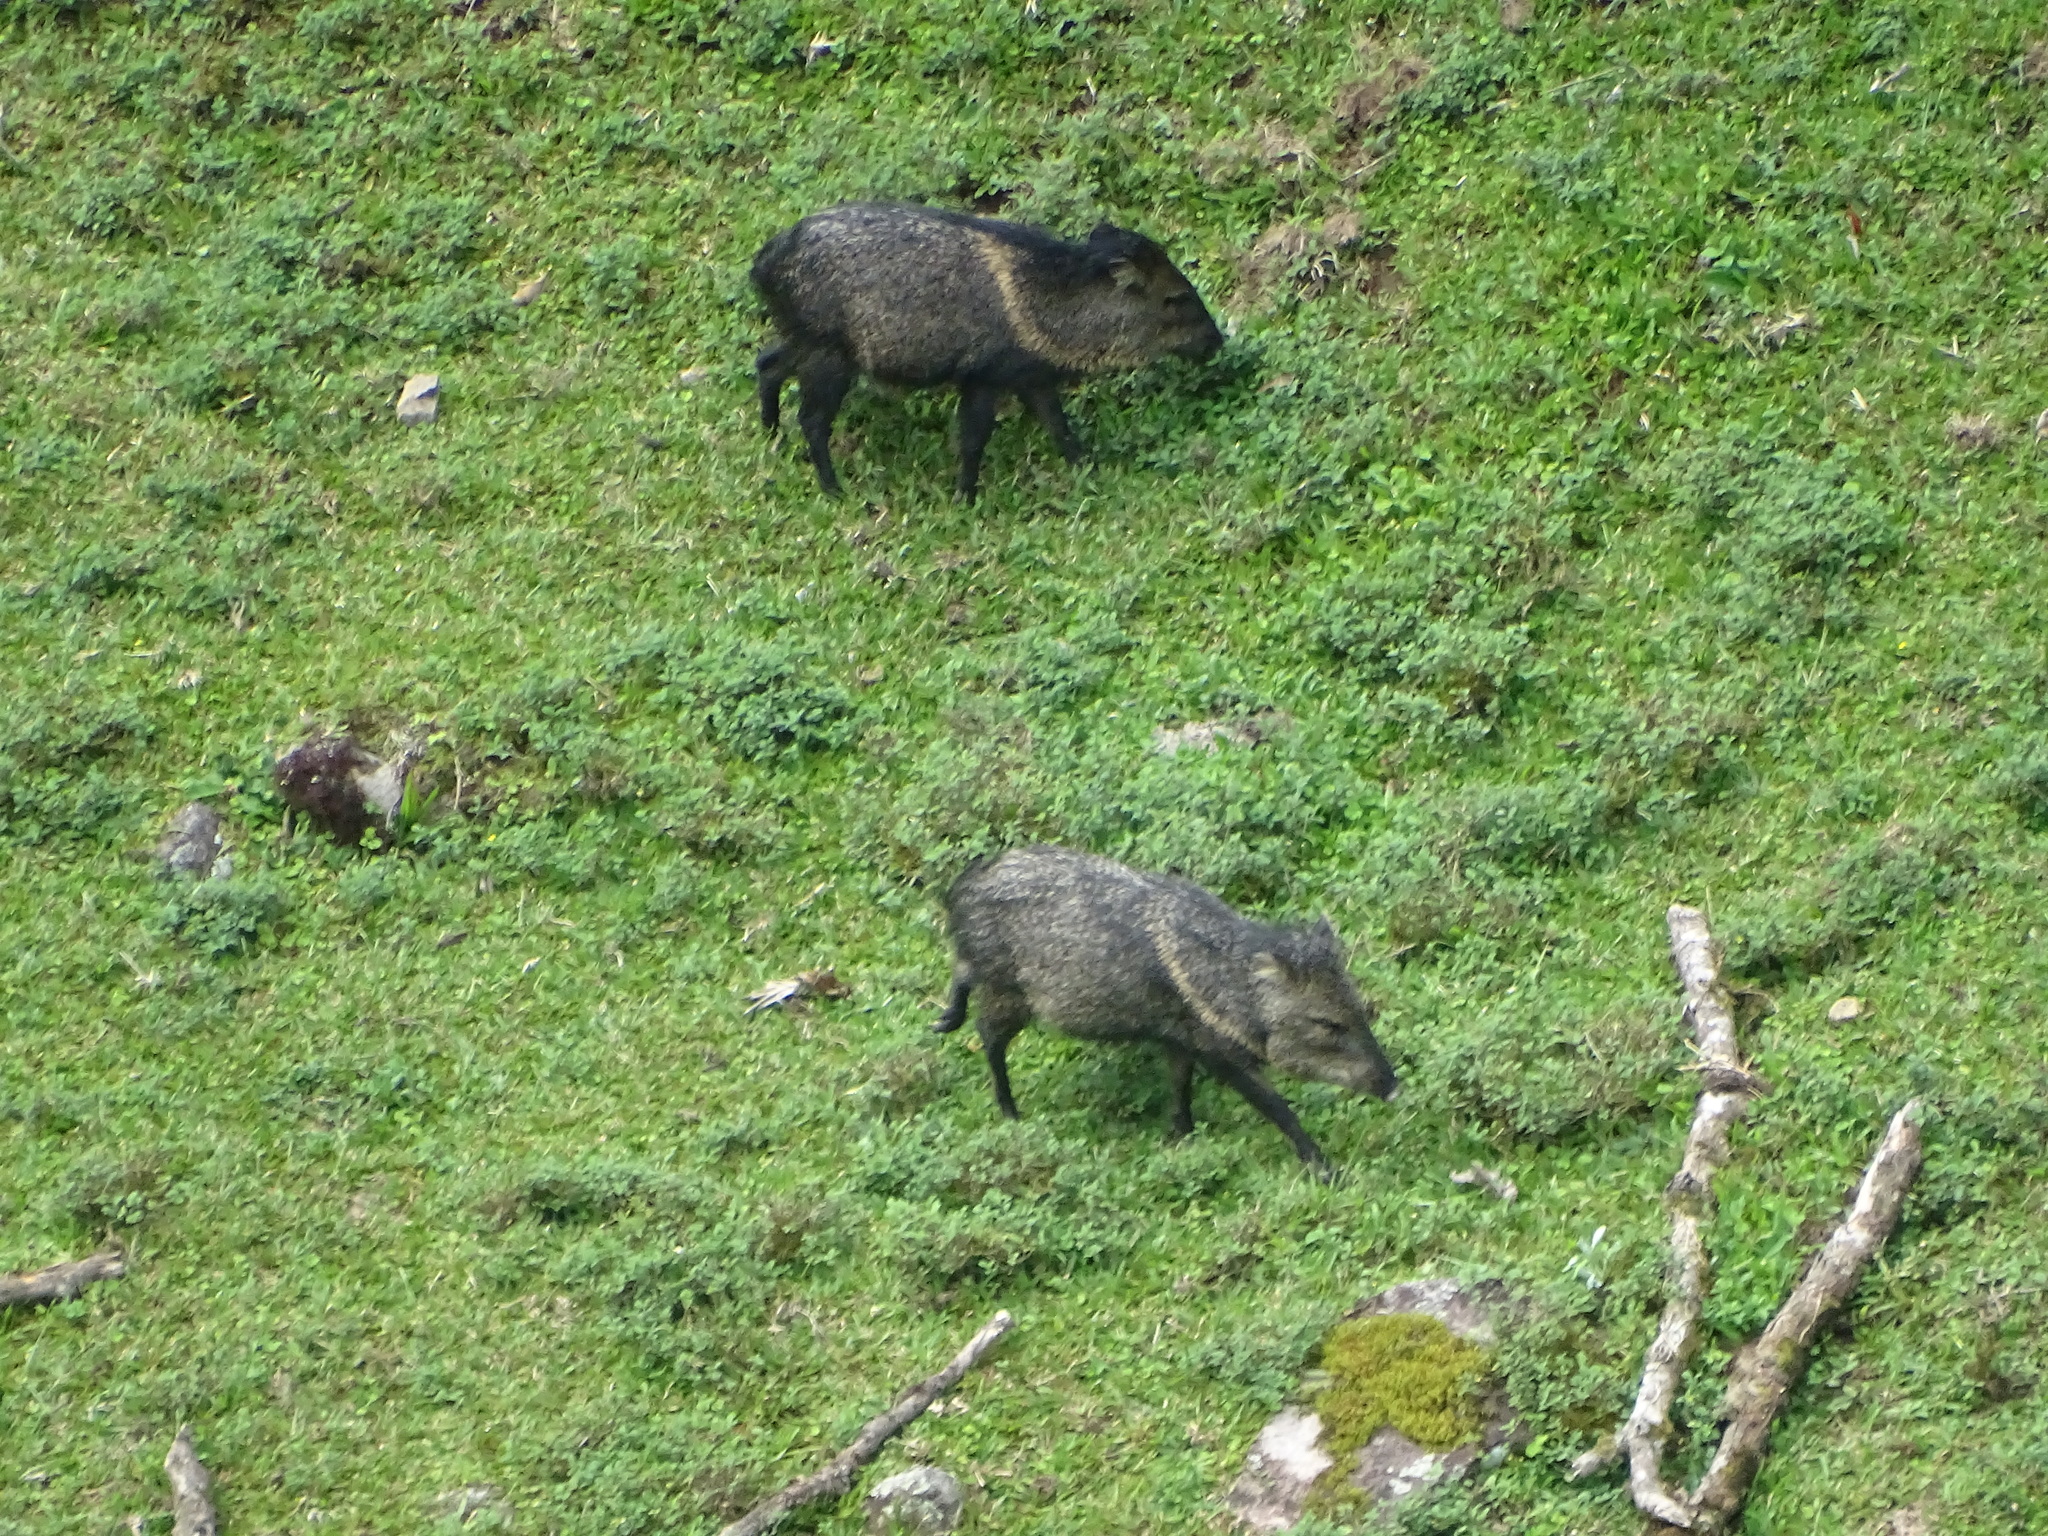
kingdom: Animalia
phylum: Chordata
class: Mammalia
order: Artiodactyla
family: Tayassuidae
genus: Pecari
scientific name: Pecari tajacu
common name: Collared peccary
